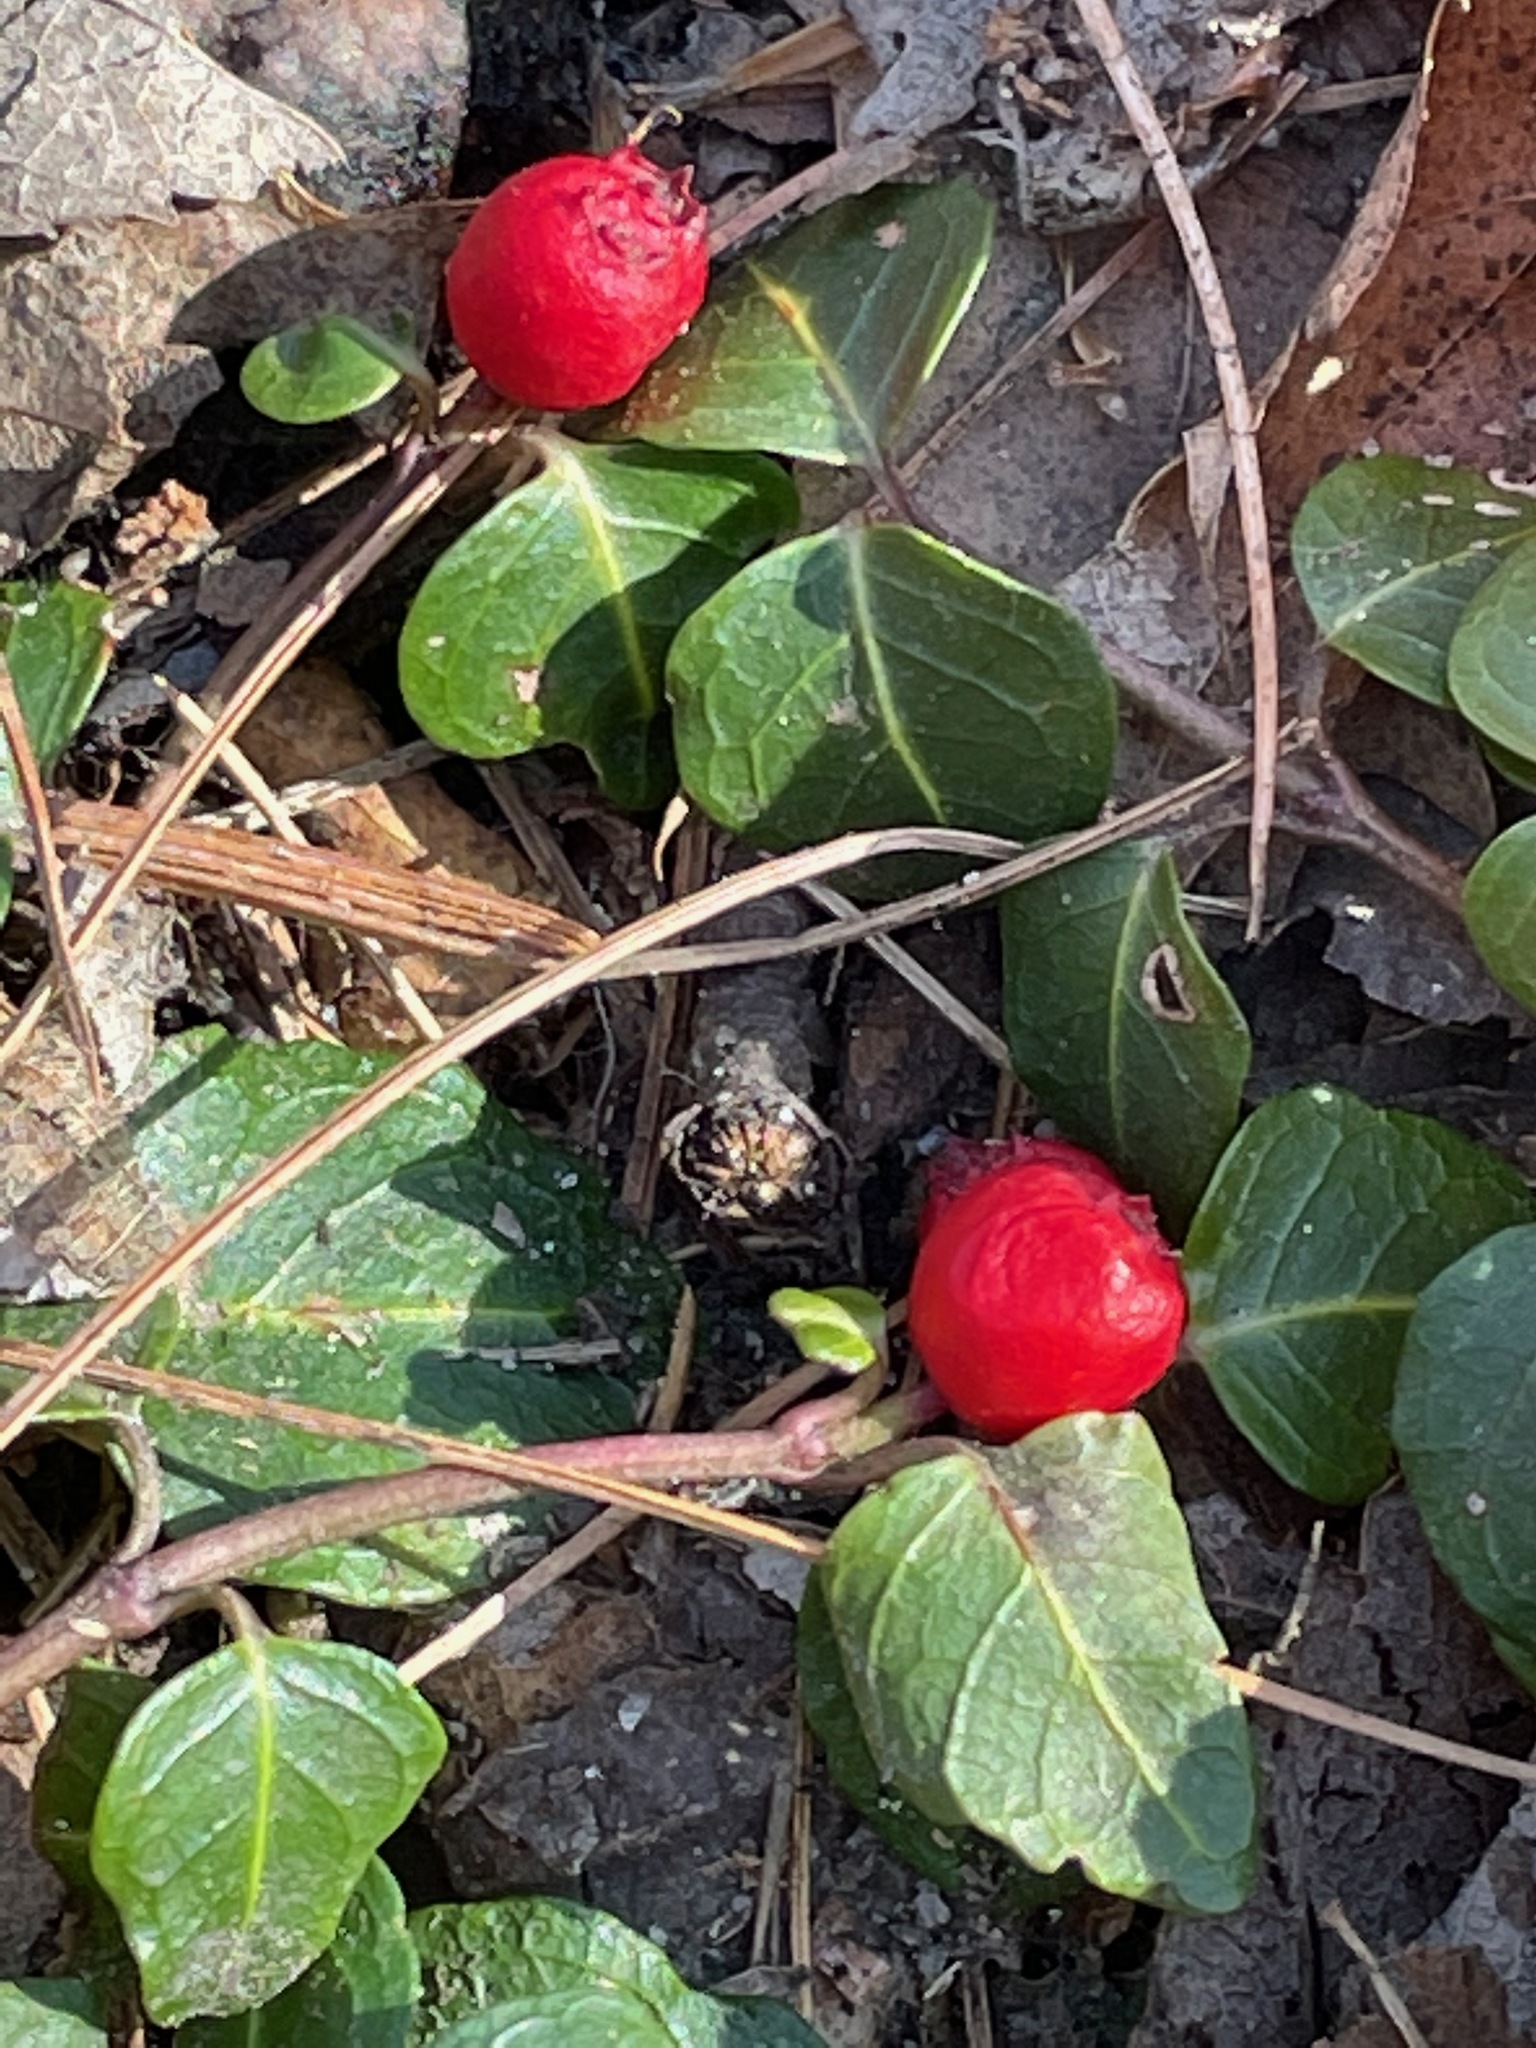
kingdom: Plantae
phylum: Tracheophyta
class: Magnoliopsida
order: Gentianales
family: Rubiaceae
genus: Mitchella
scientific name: Mitchella repens
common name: Partridge-berry
